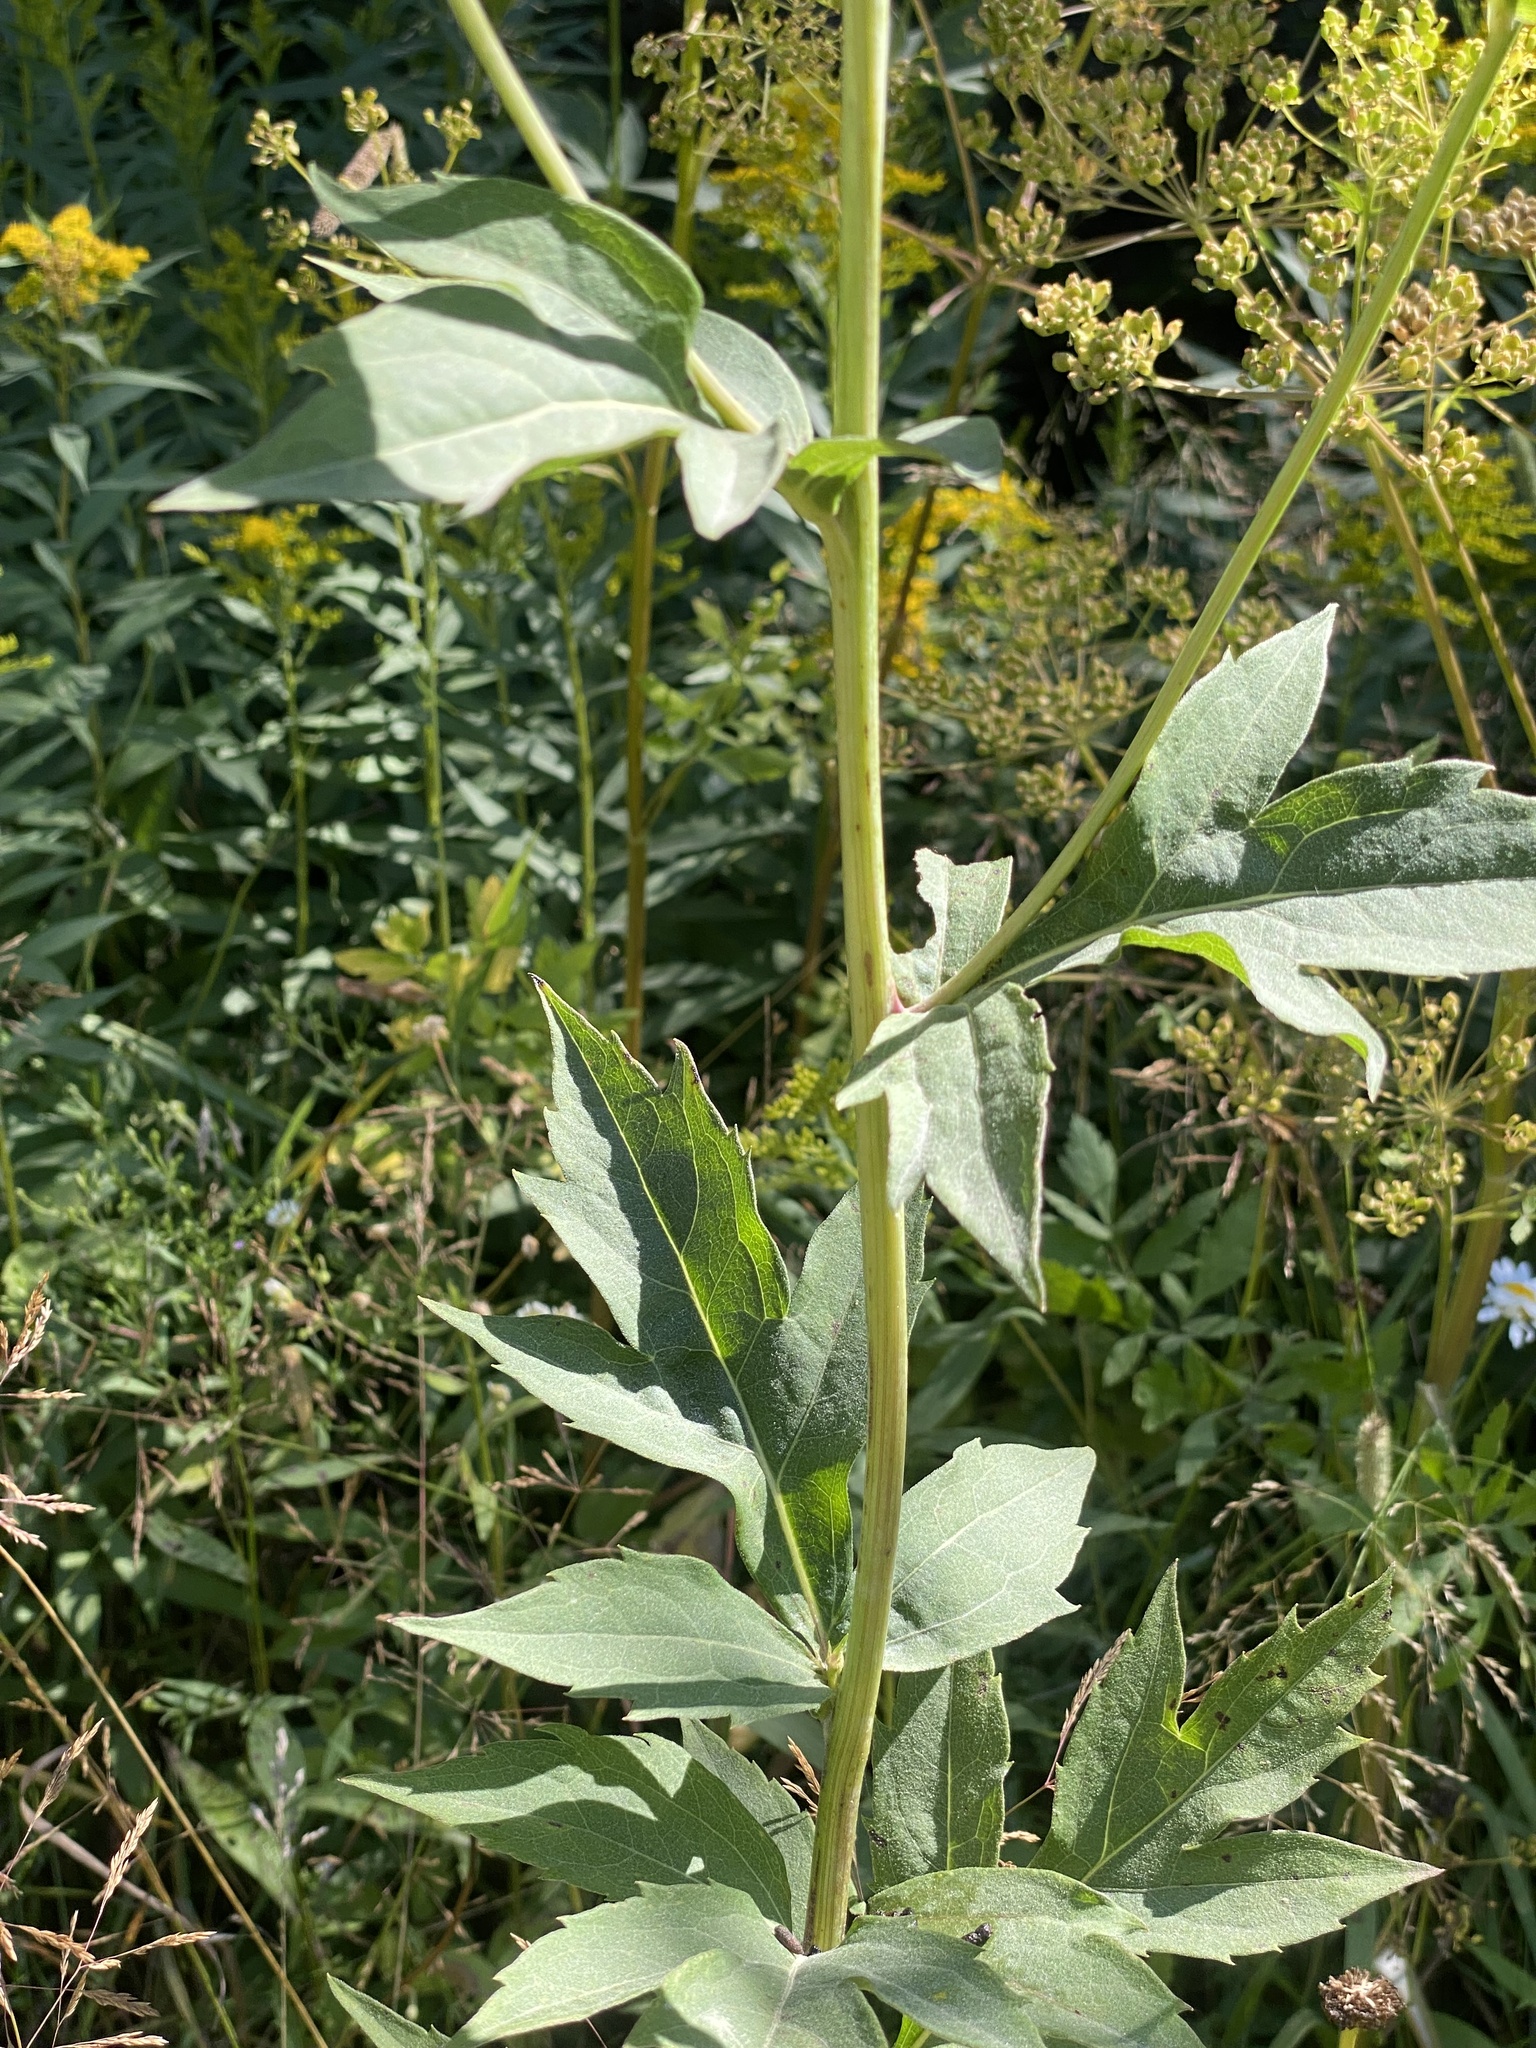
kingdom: Plantae
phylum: Tracheophyta
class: Magnoliopsida
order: Asterales
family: Asteraceae
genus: Rudbeckia
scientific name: Rudbeckia laciniata
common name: Coneflower
